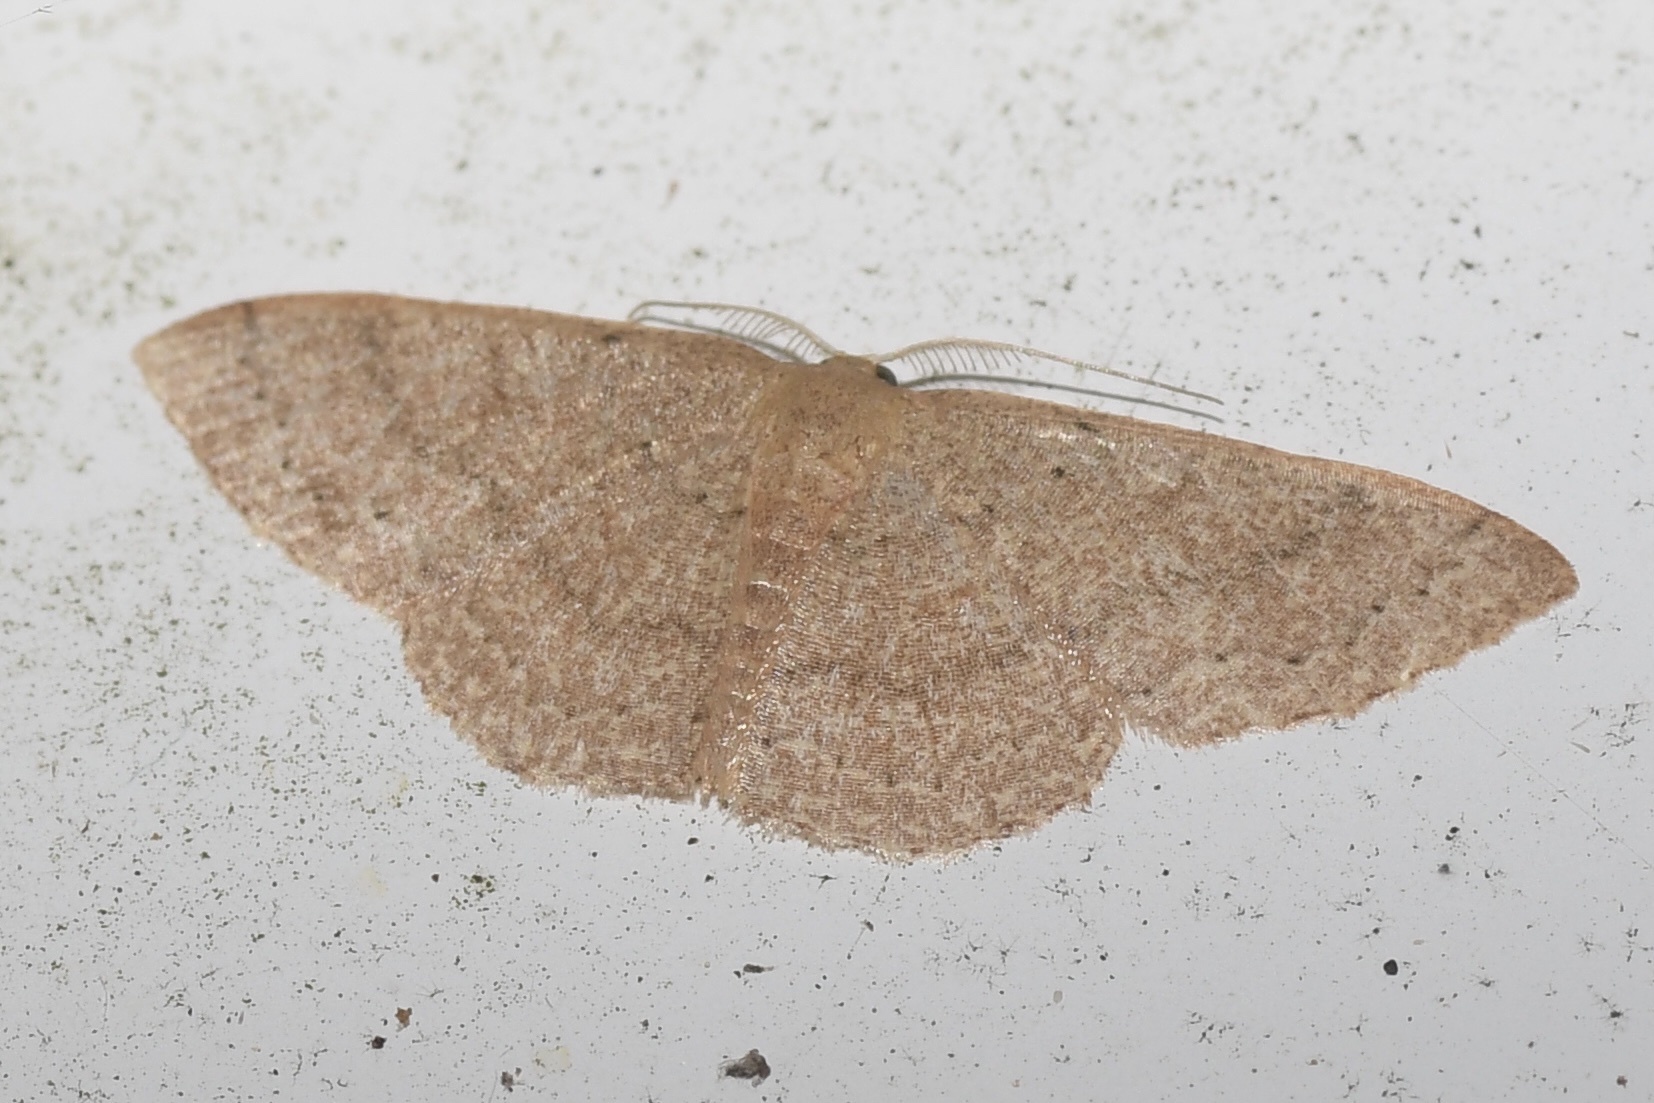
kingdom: Animalia
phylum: Arthropoda
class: Insecta
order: Lepidoptera
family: Geometridae
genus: Pleuroprucha
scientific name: Pleuroprucha insulsaria
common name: Common tan wave
